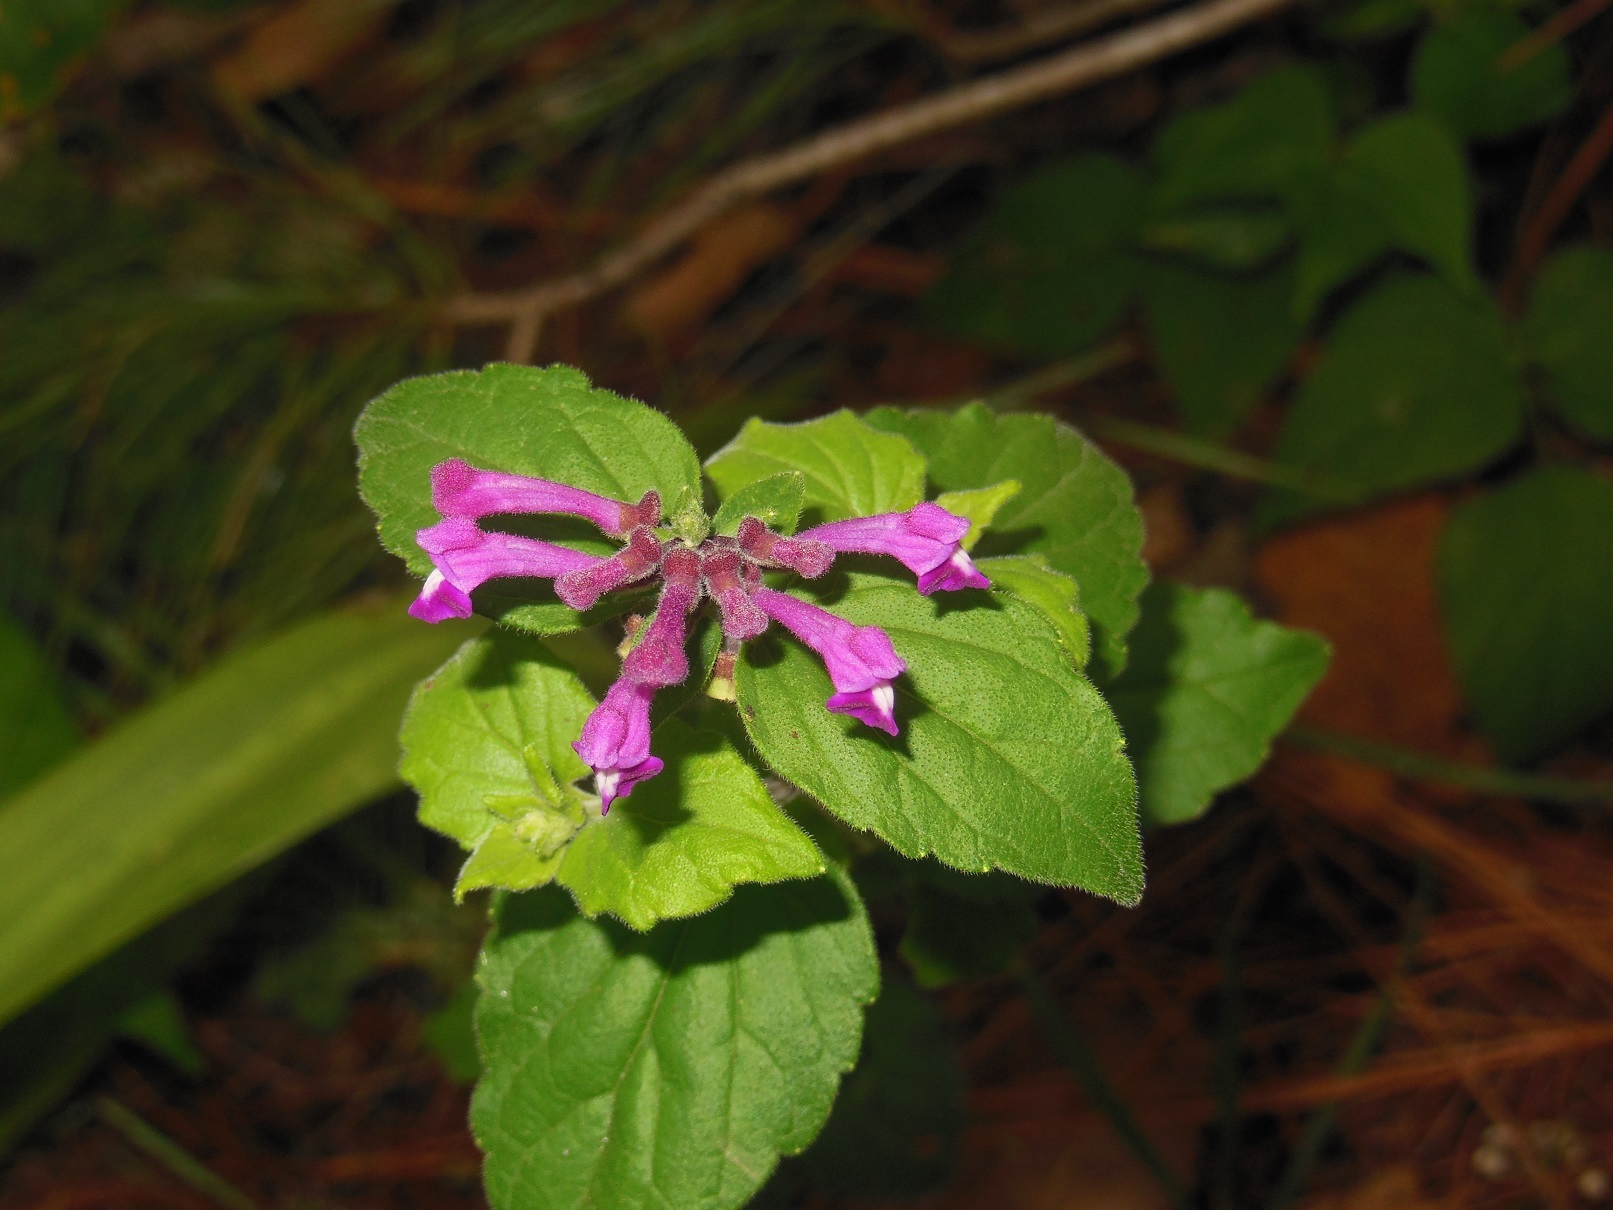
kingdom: Plantae
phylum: Tracheophyta
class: Magnoliopsida
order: Lamiales
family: Lamiaceae
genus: Scutellaria
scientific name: Scutellaria guatemalensis
